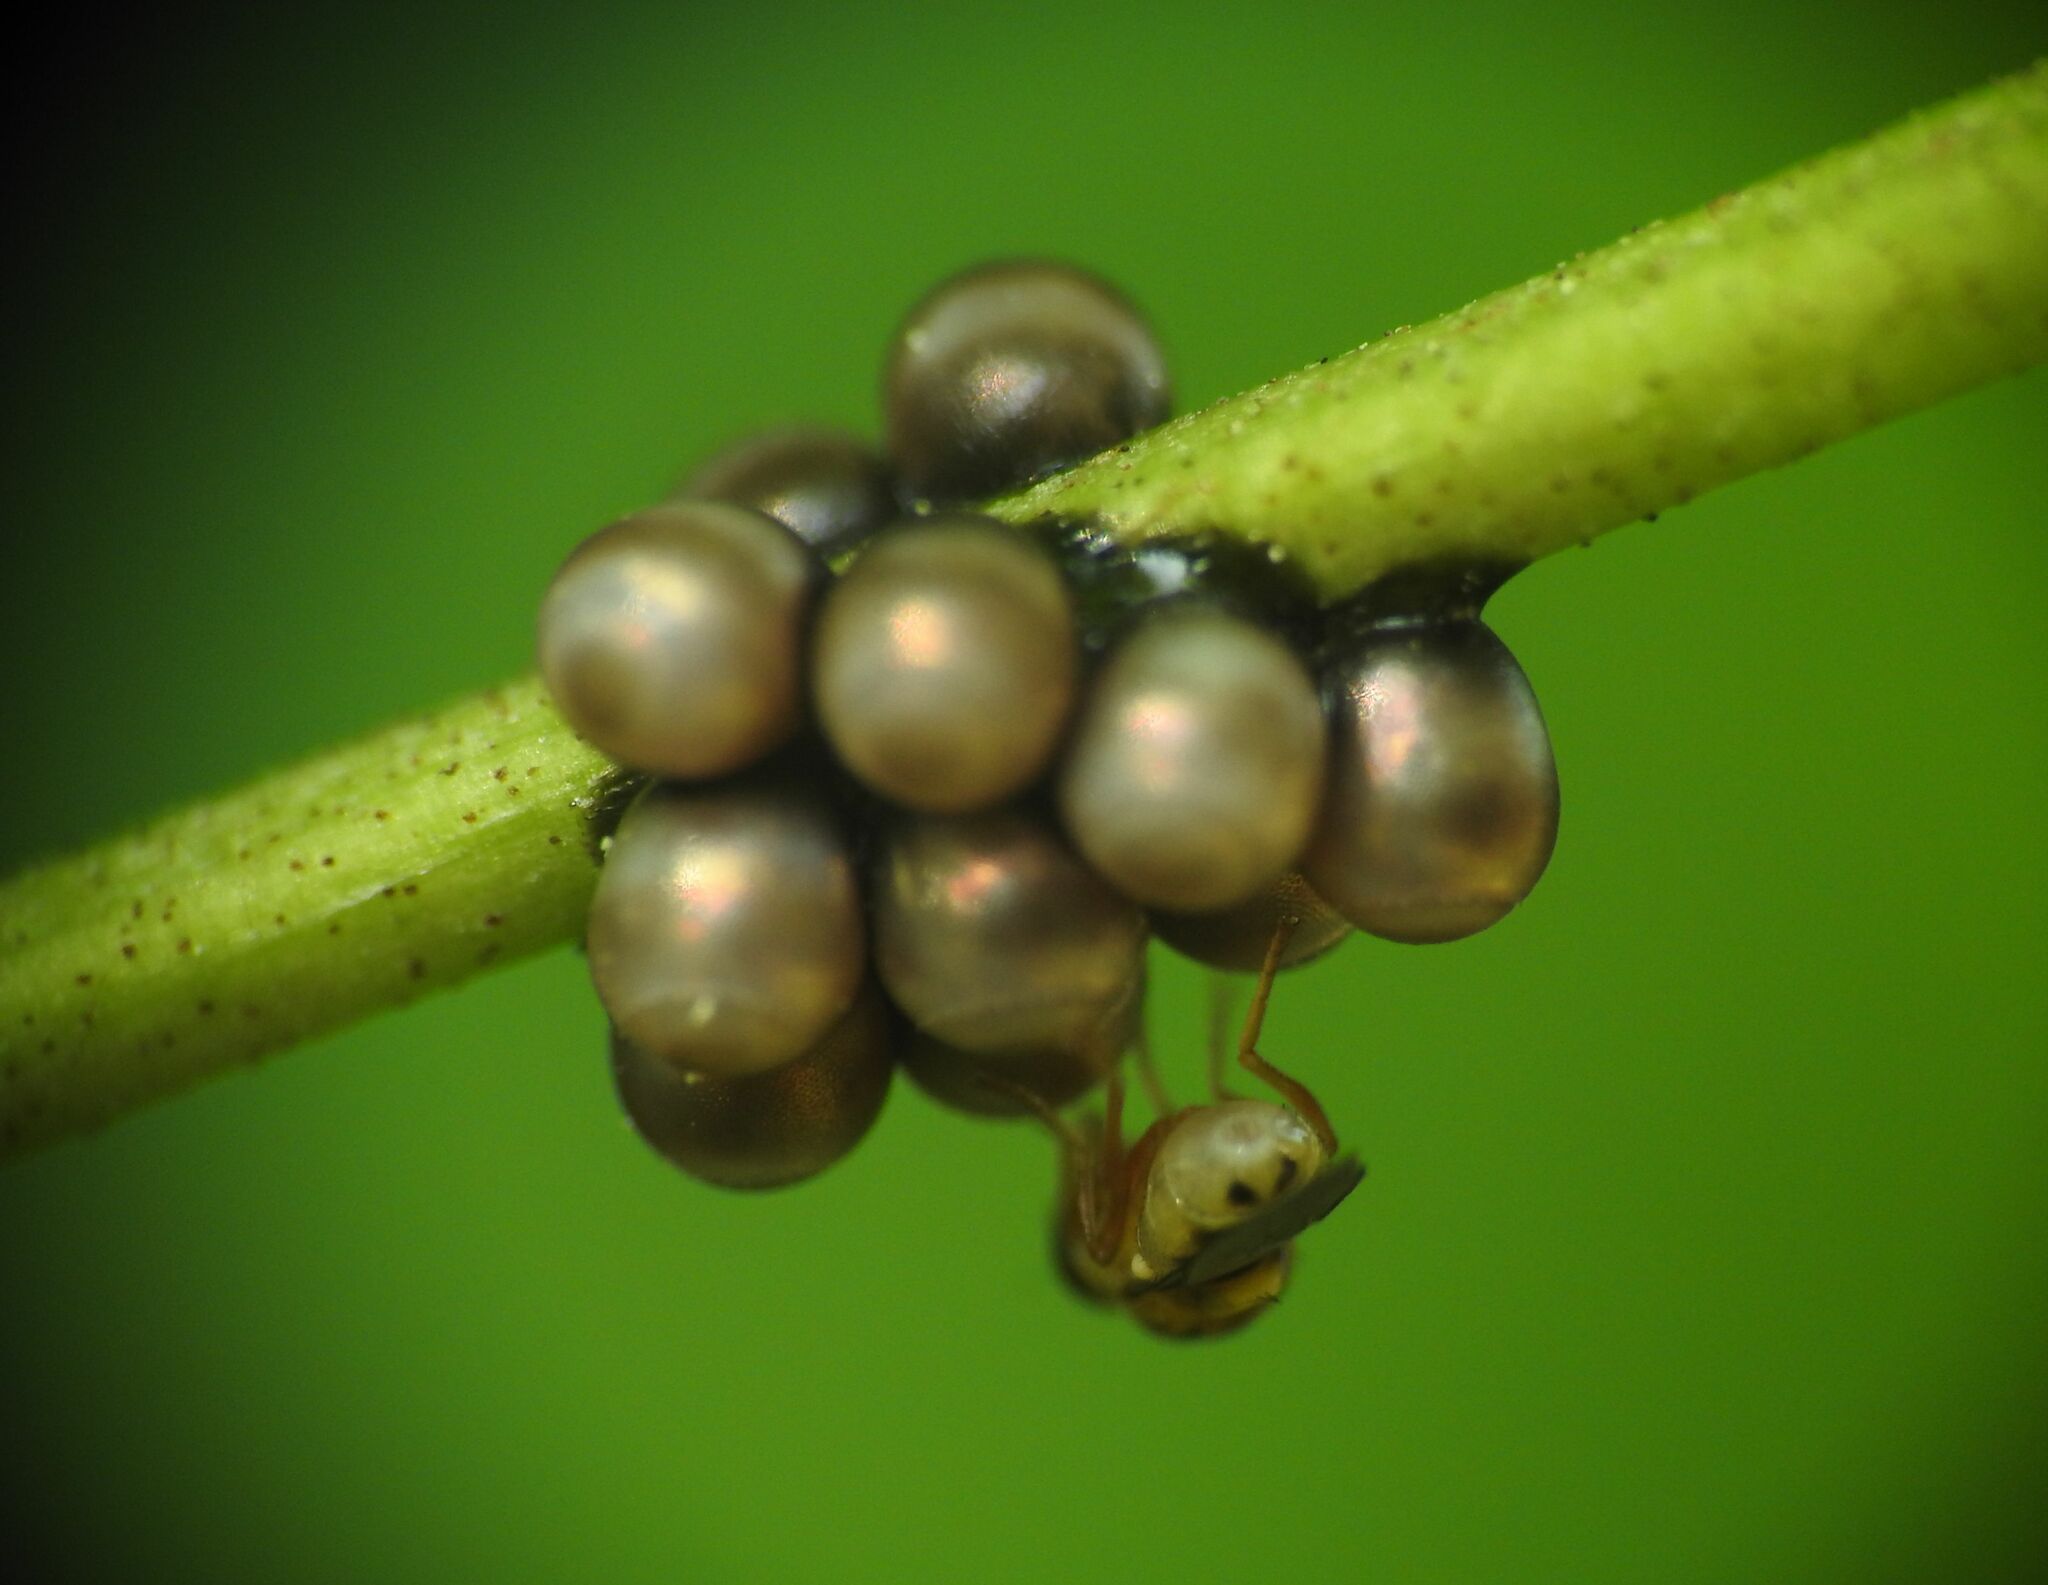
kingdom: Animalia
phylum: Arthropoda
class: Insecta
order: Hemiptera
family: Pentatomidae
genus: Rhaphigaster
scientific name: Rhaphigaster nebulosa
